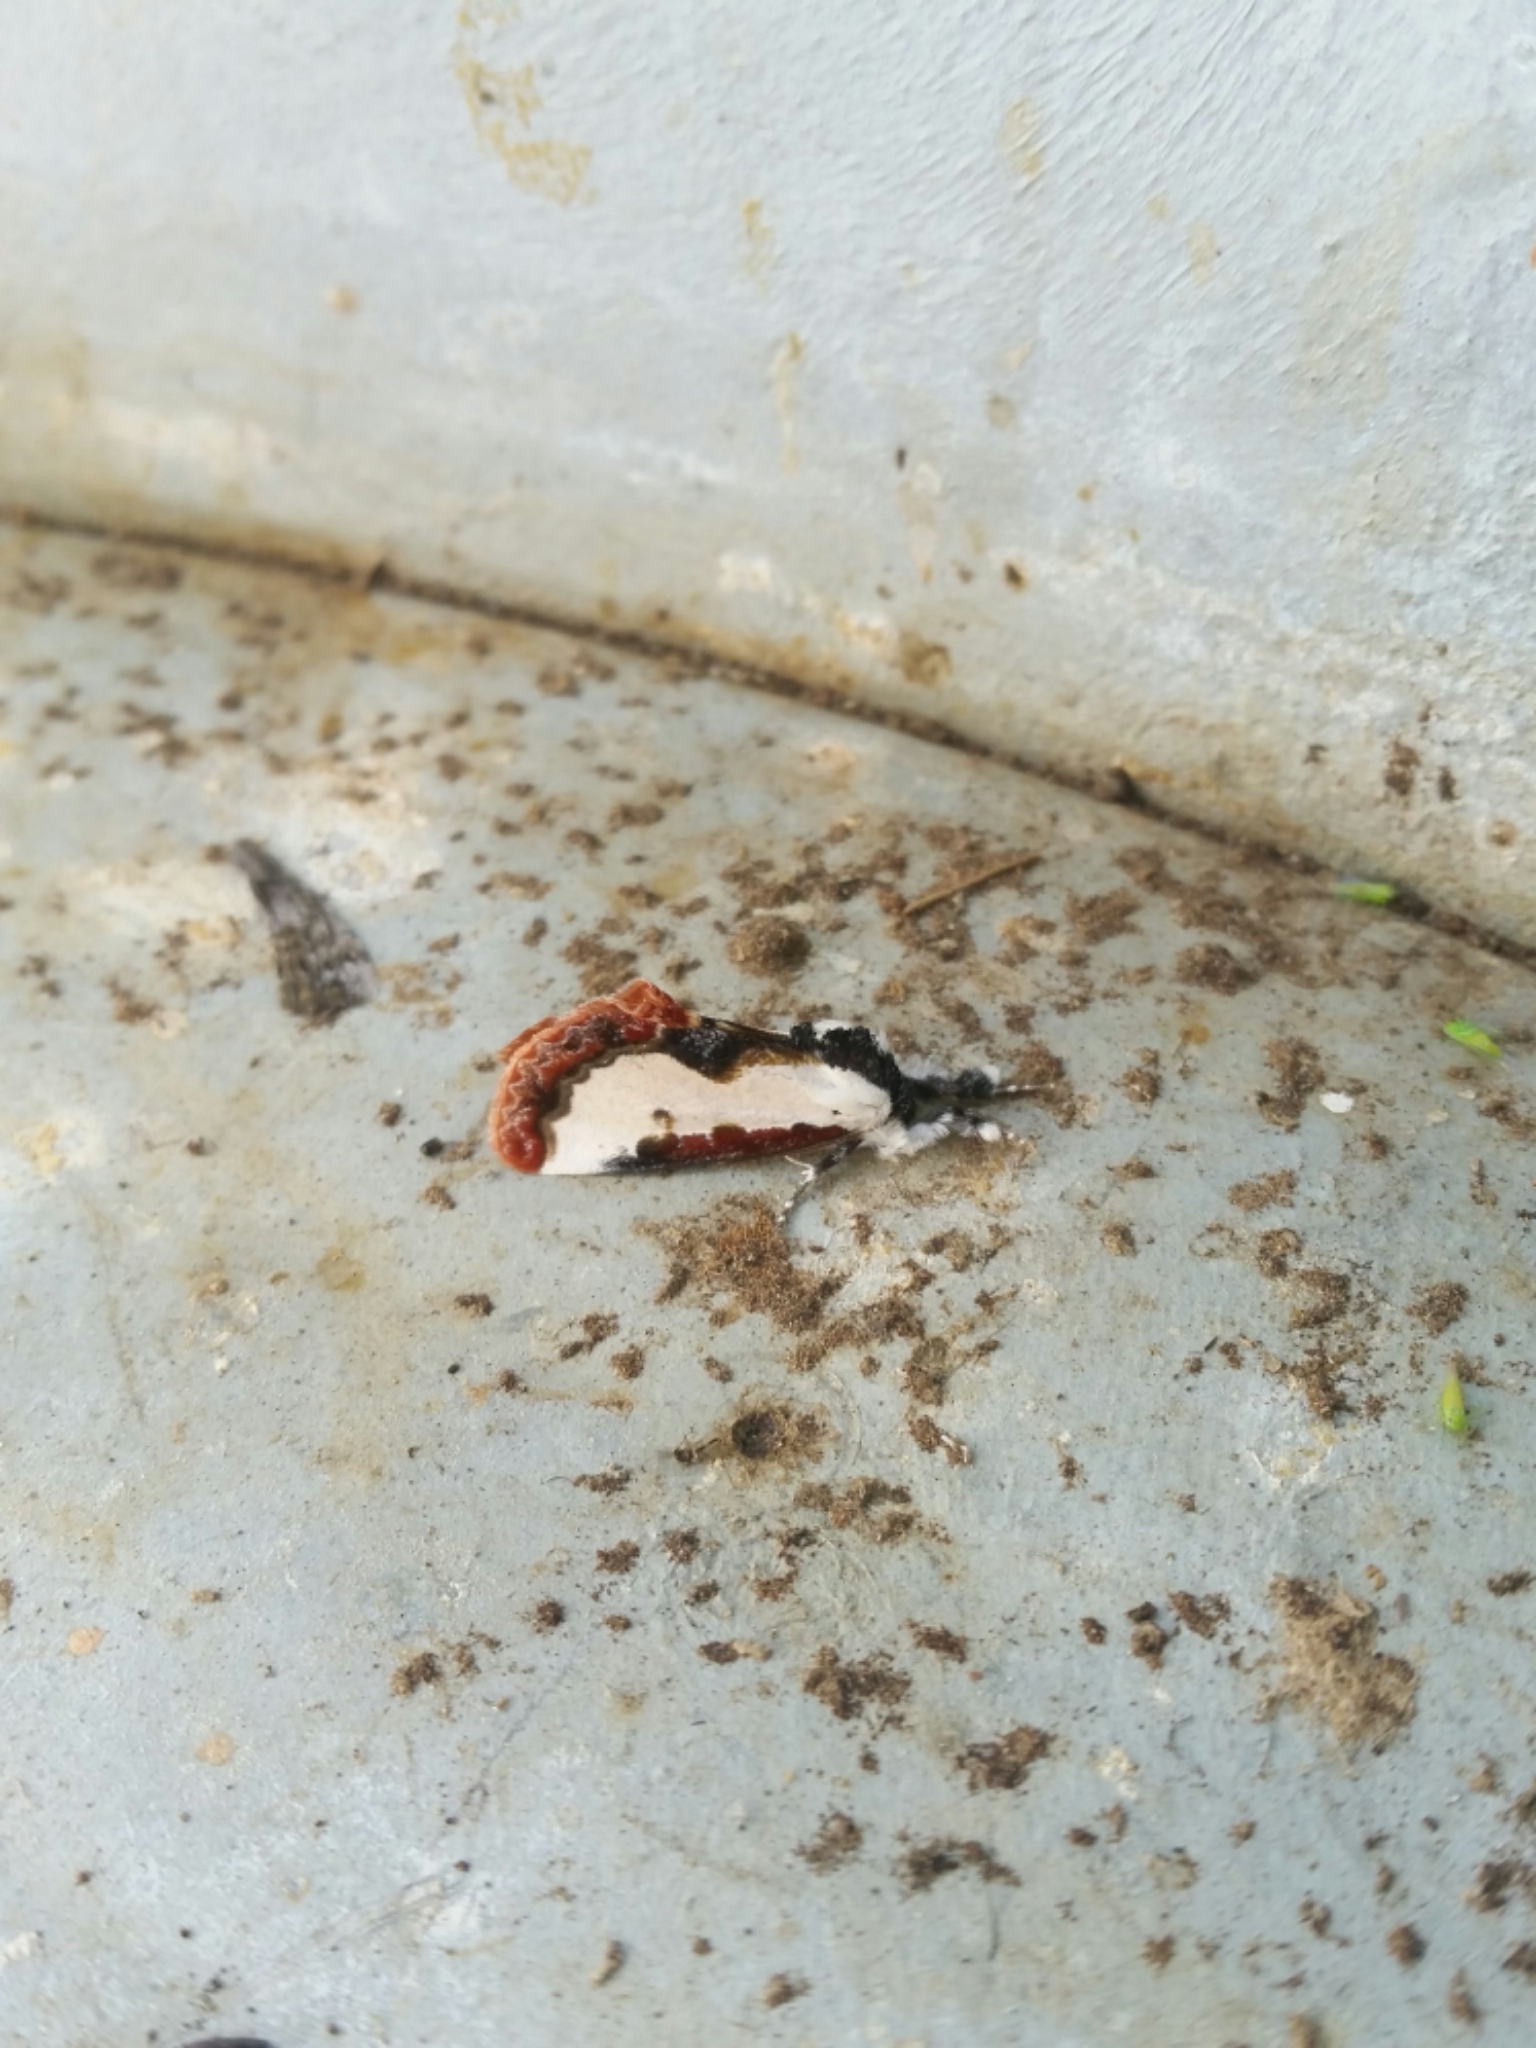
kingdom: Animalia
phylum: Arthropoda
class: Insecta
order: Lepidoptera
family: Noctuidae
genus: Eudryas
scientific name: Eudryas unio
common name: Pearly wood-nymph
